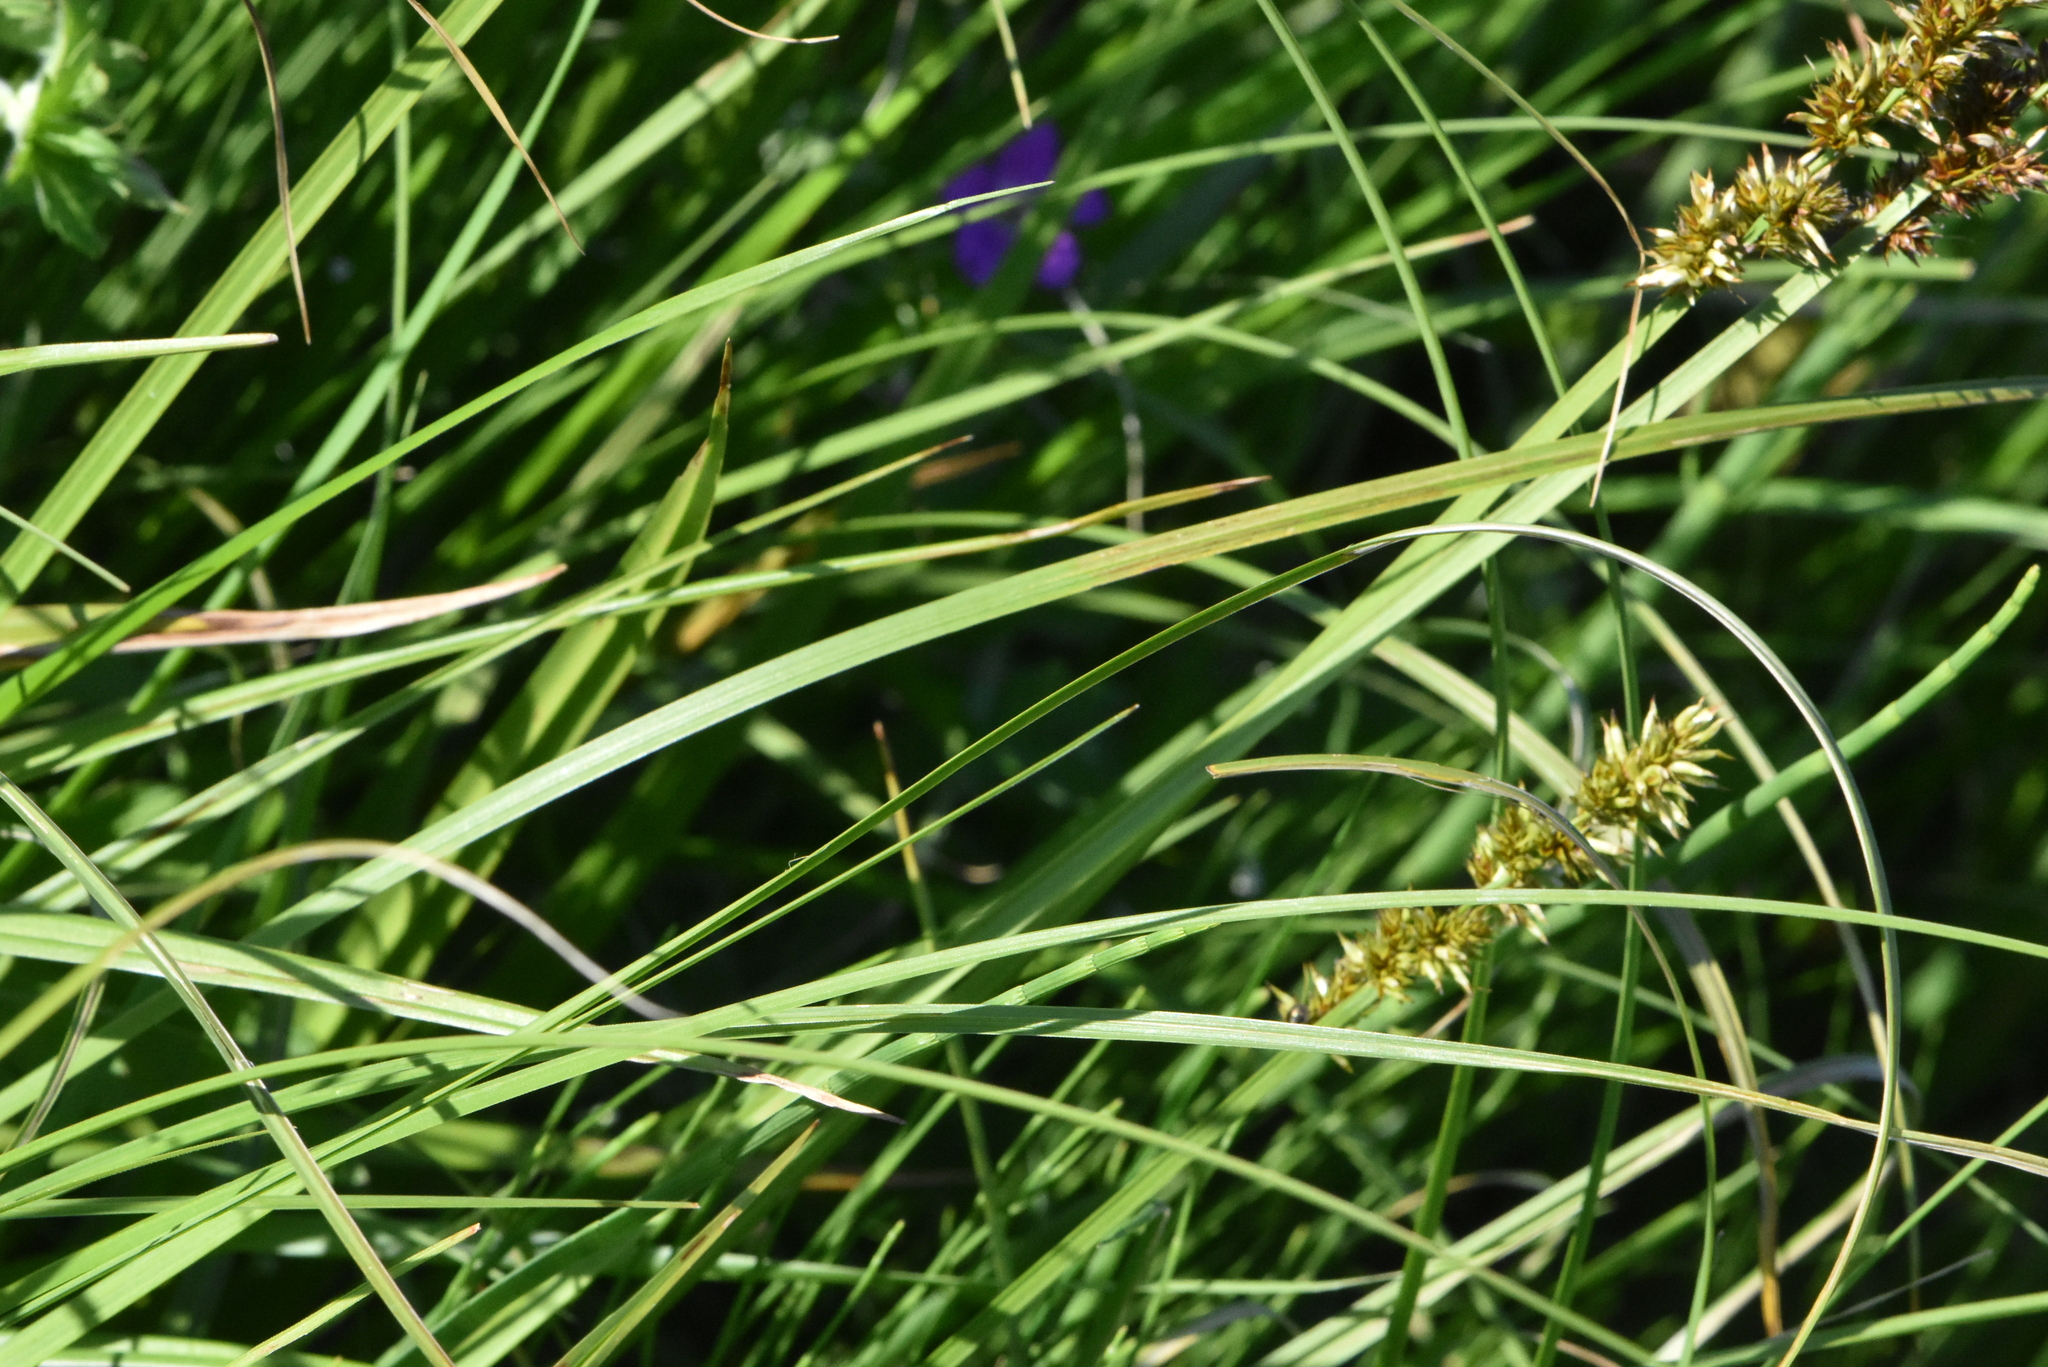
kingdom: Plantae
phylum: Tracheophyta
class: Liliopsida
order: Poales
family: Cyperaceae
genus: Carex
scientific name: Carex vulpina
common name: True fox-sedge
